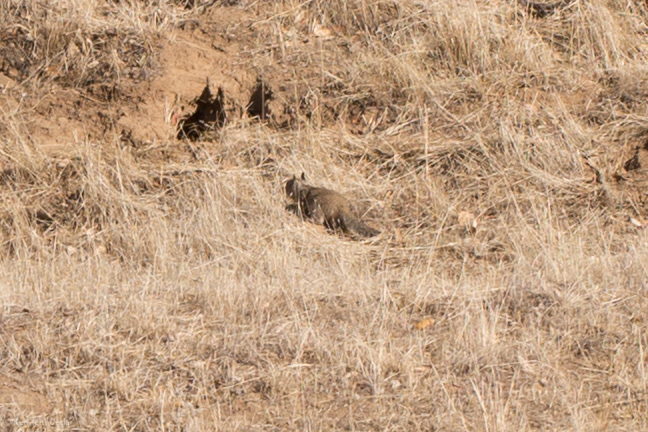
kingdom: Animalia
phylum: Chordata
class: Mammalia
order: Rodentia
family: Sciuridae
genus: Otospermophilus
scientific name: Otospermophilus beecheyi
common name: California ground squirrel
